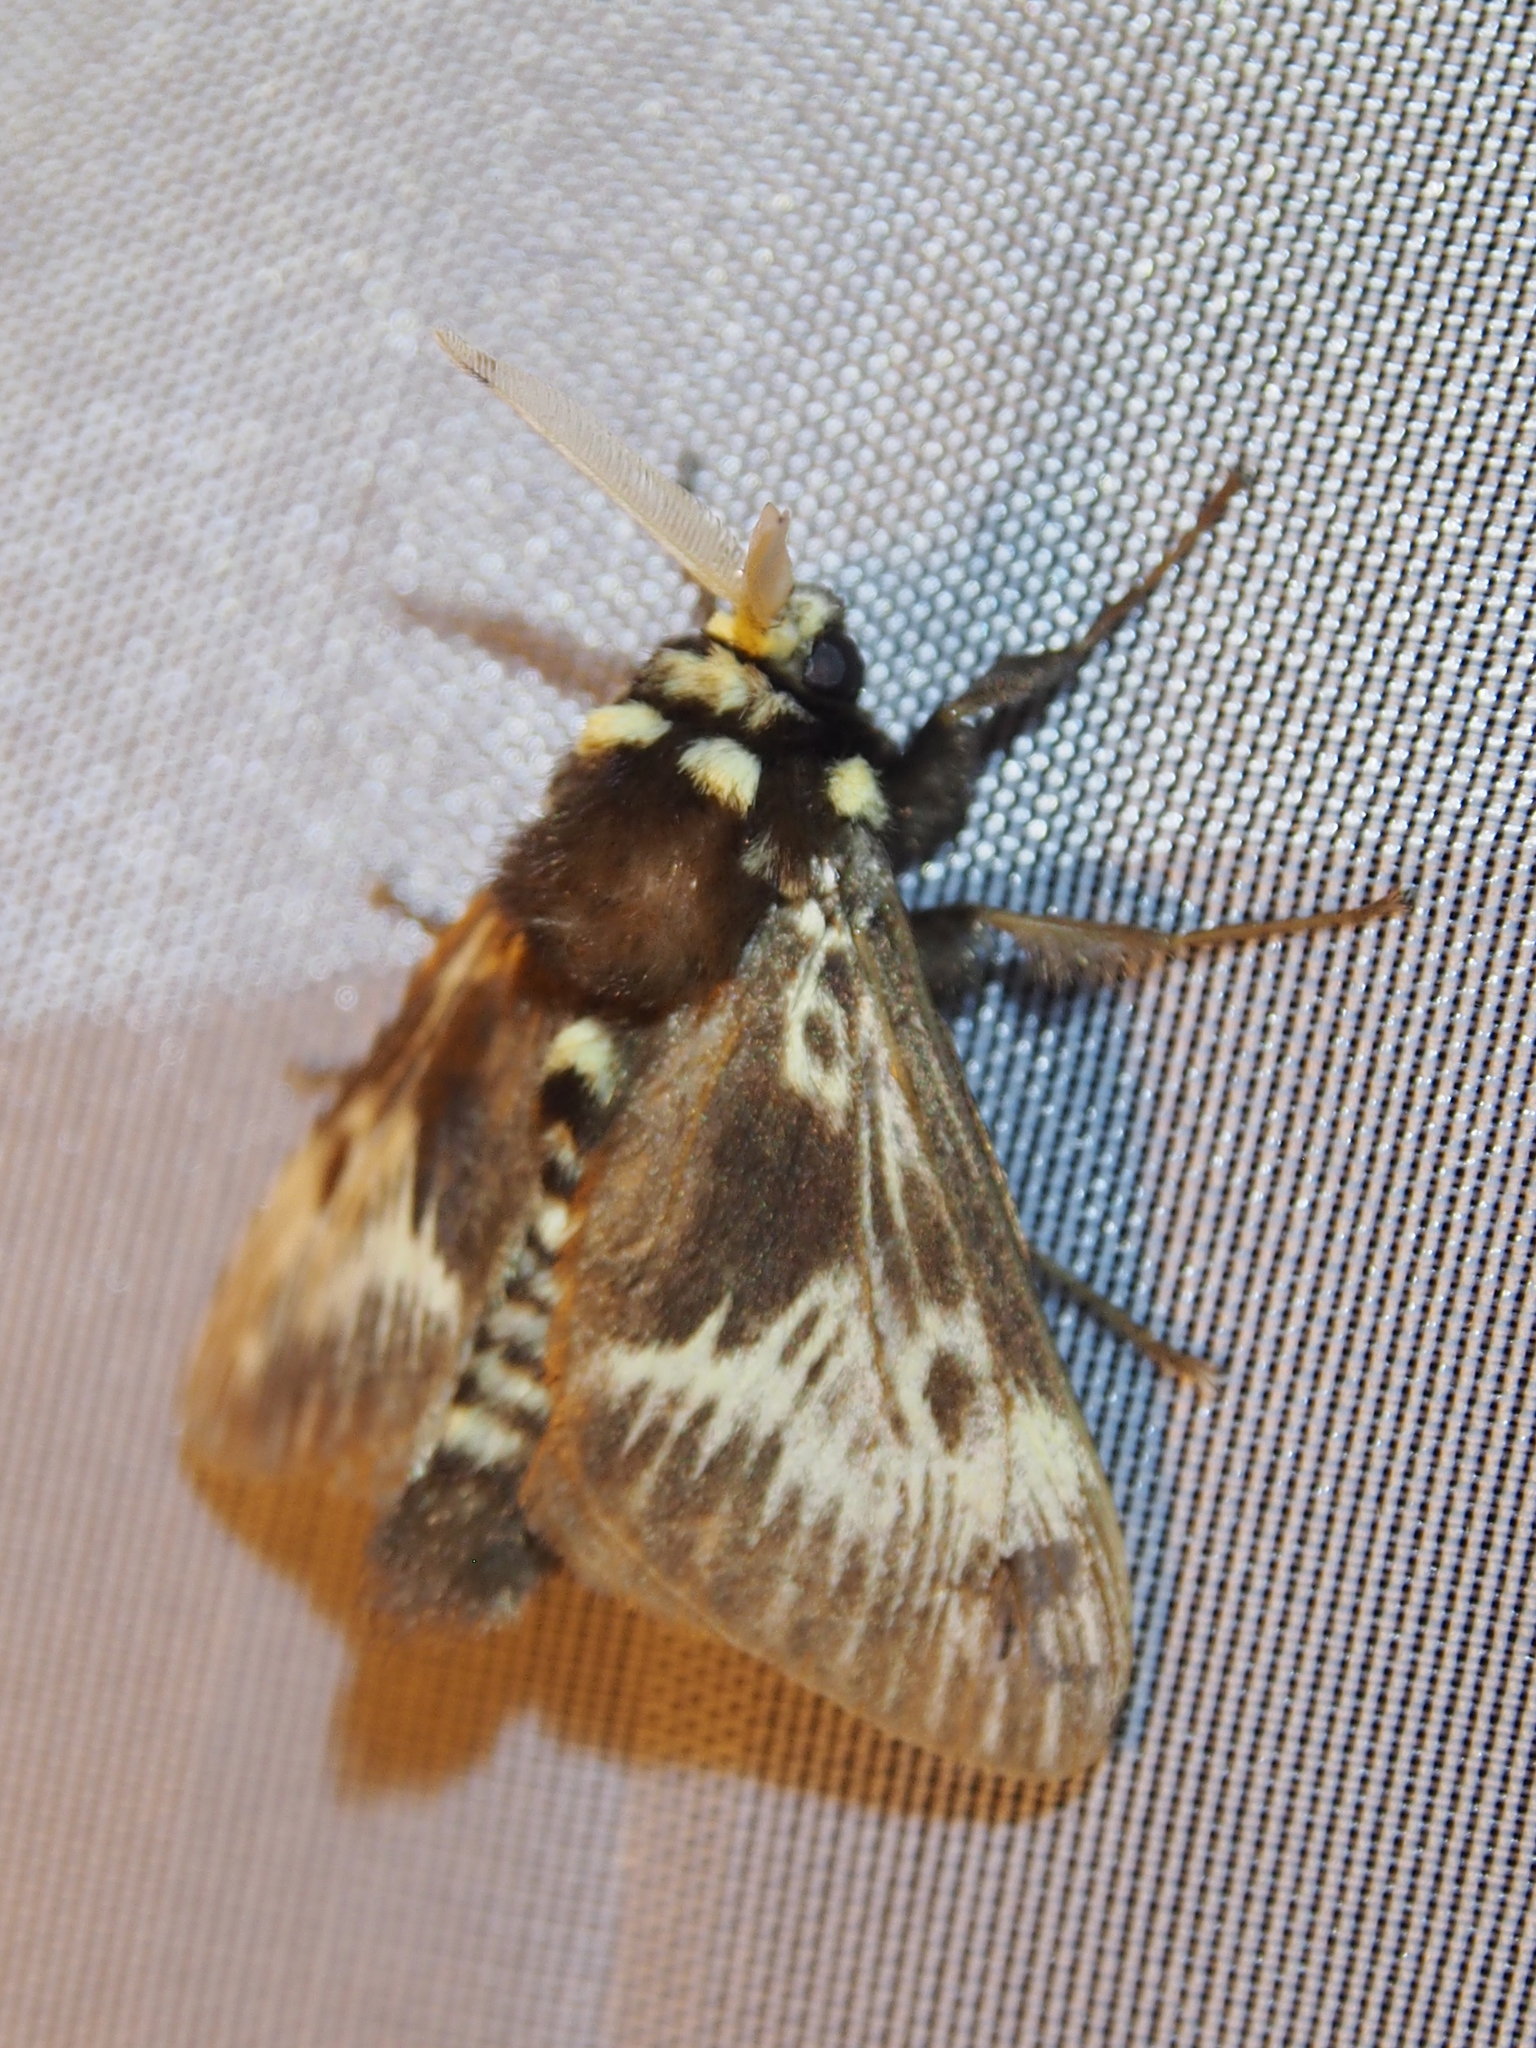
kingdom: Animalia
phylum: Arthropoda
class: Insecta
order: Lepidoptera
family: Megalopygidae
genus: Megalopyge
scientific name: Megalopyge albicollis
